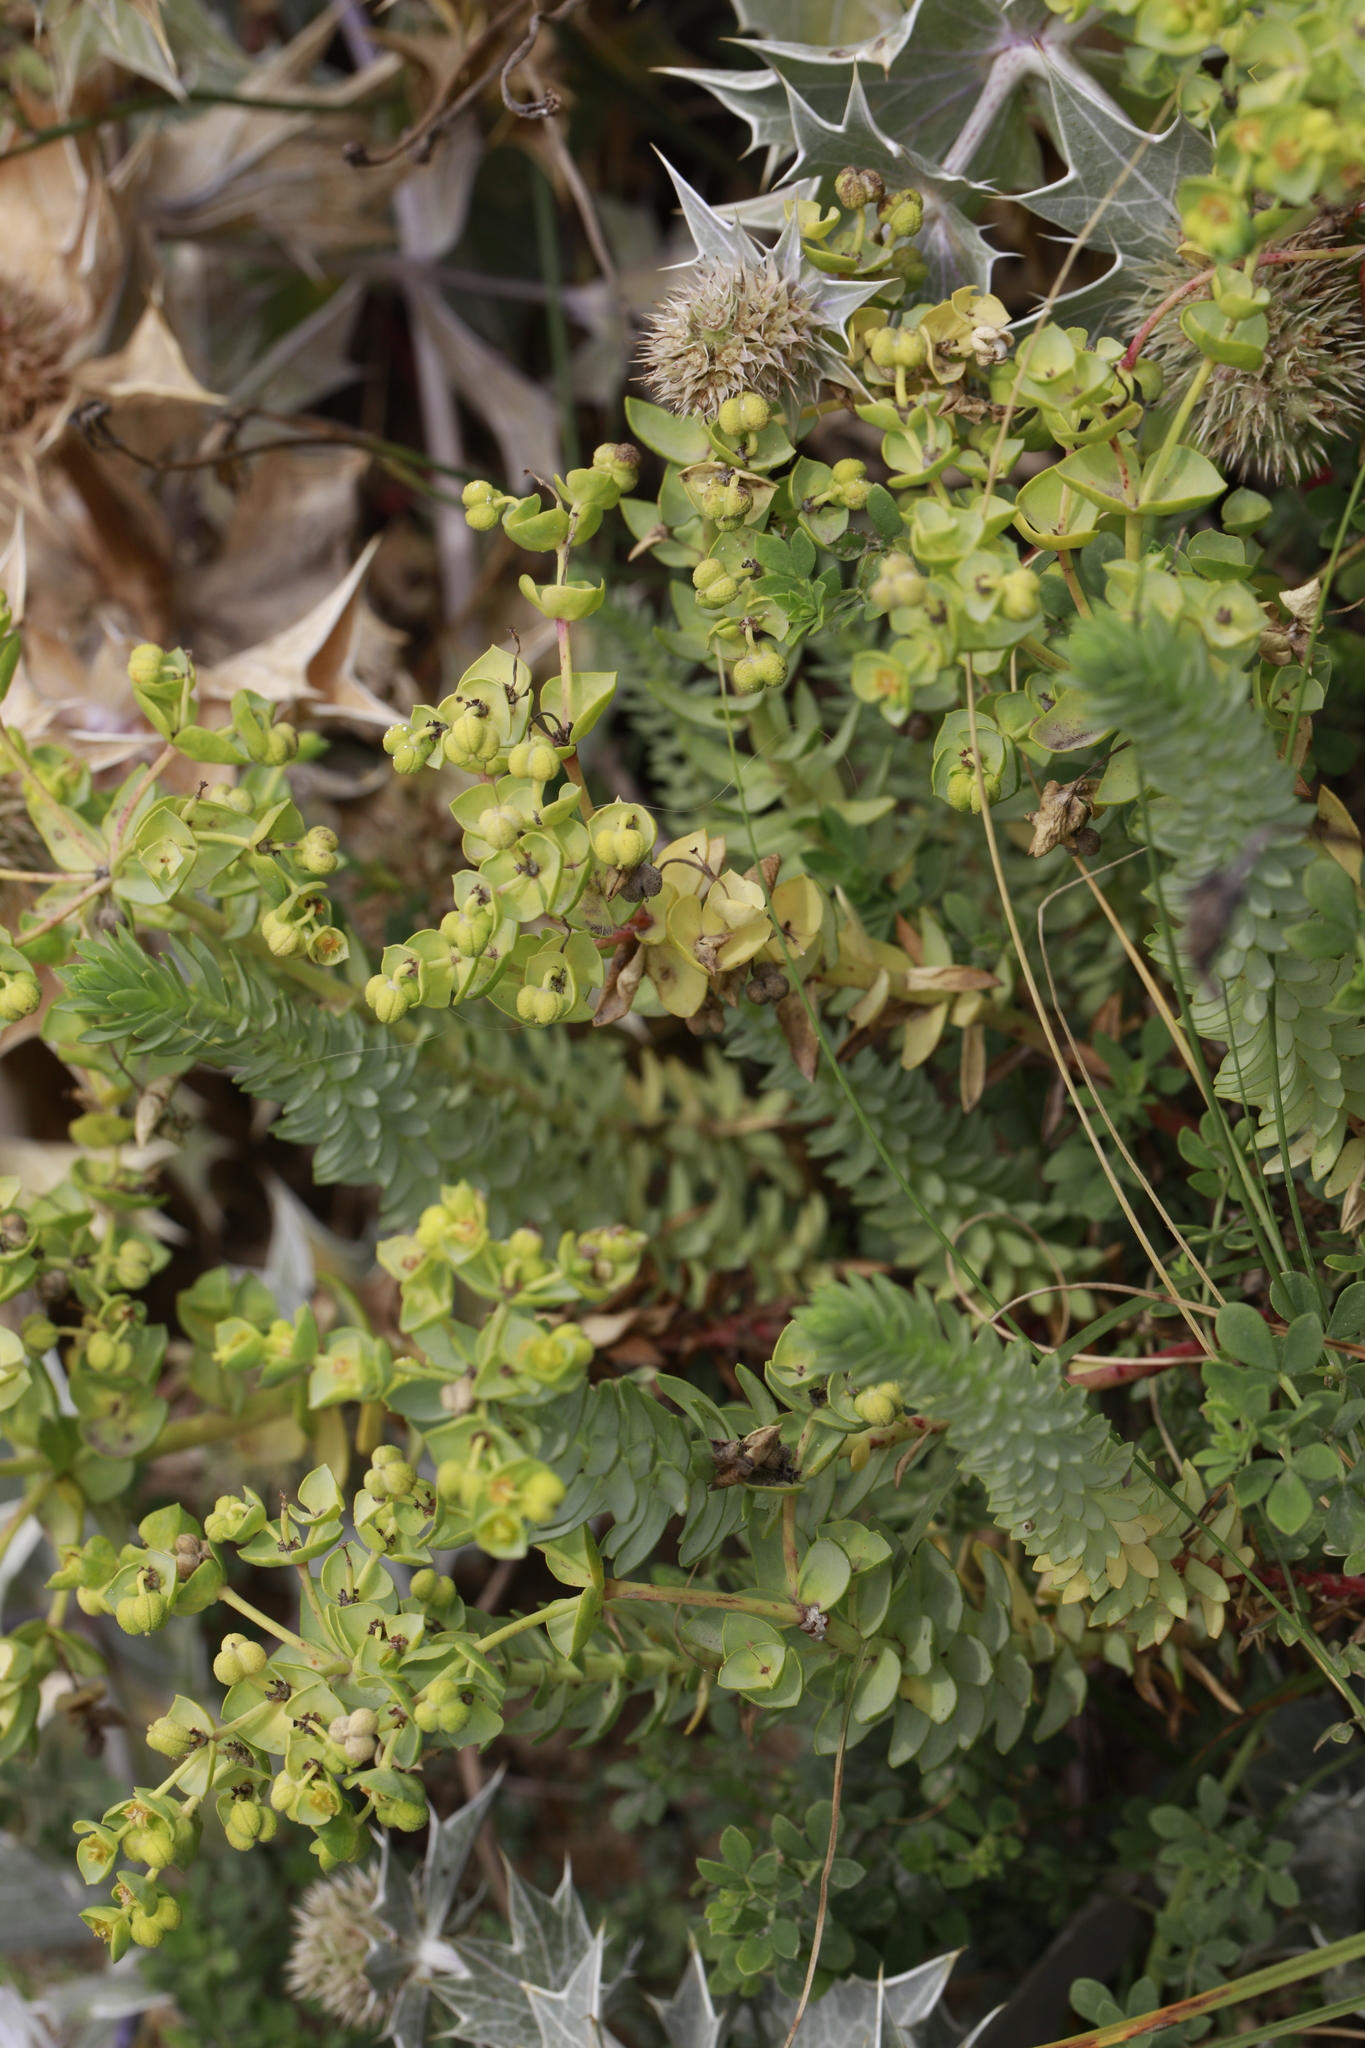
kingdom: Plantae
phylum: Tracheophyta
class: Magnoliopsida
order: Malpighiales
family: Euphorbiaceae
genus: Euphorbia
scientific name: Euphorbia paralias
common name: Sea spurge
